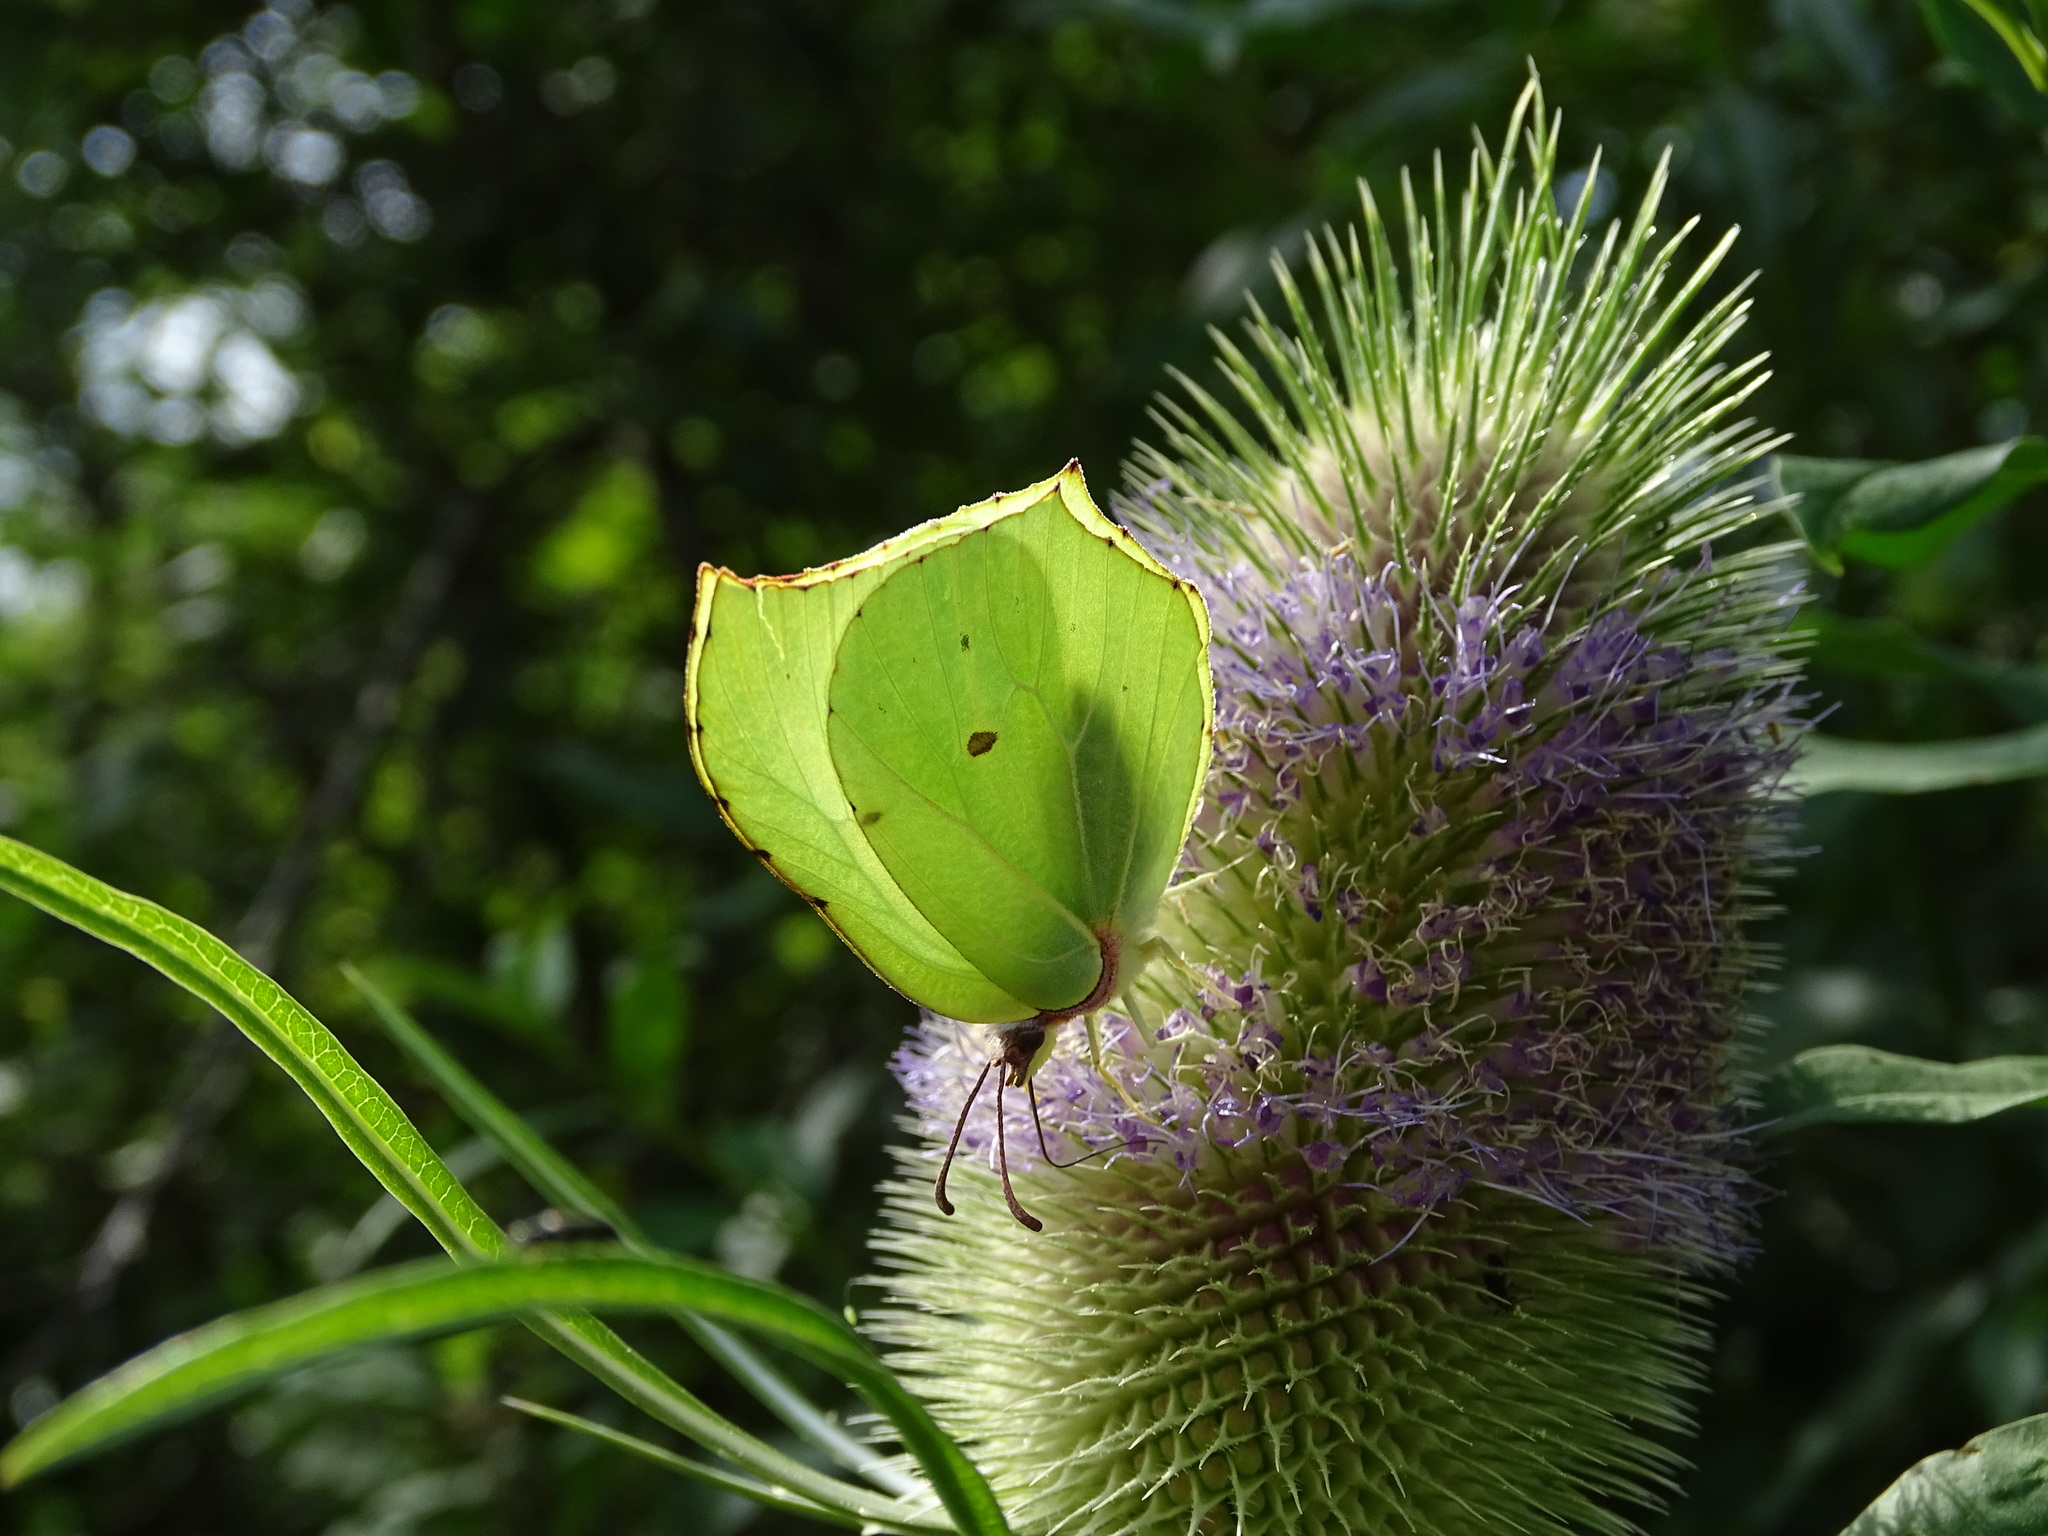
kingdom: Animalia
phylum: Arthropoda
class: Insecta
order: Lepidoptera
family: Pieridae
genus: Gonepteryx
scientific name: Gonepteryx rhamni
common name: Brimstone
